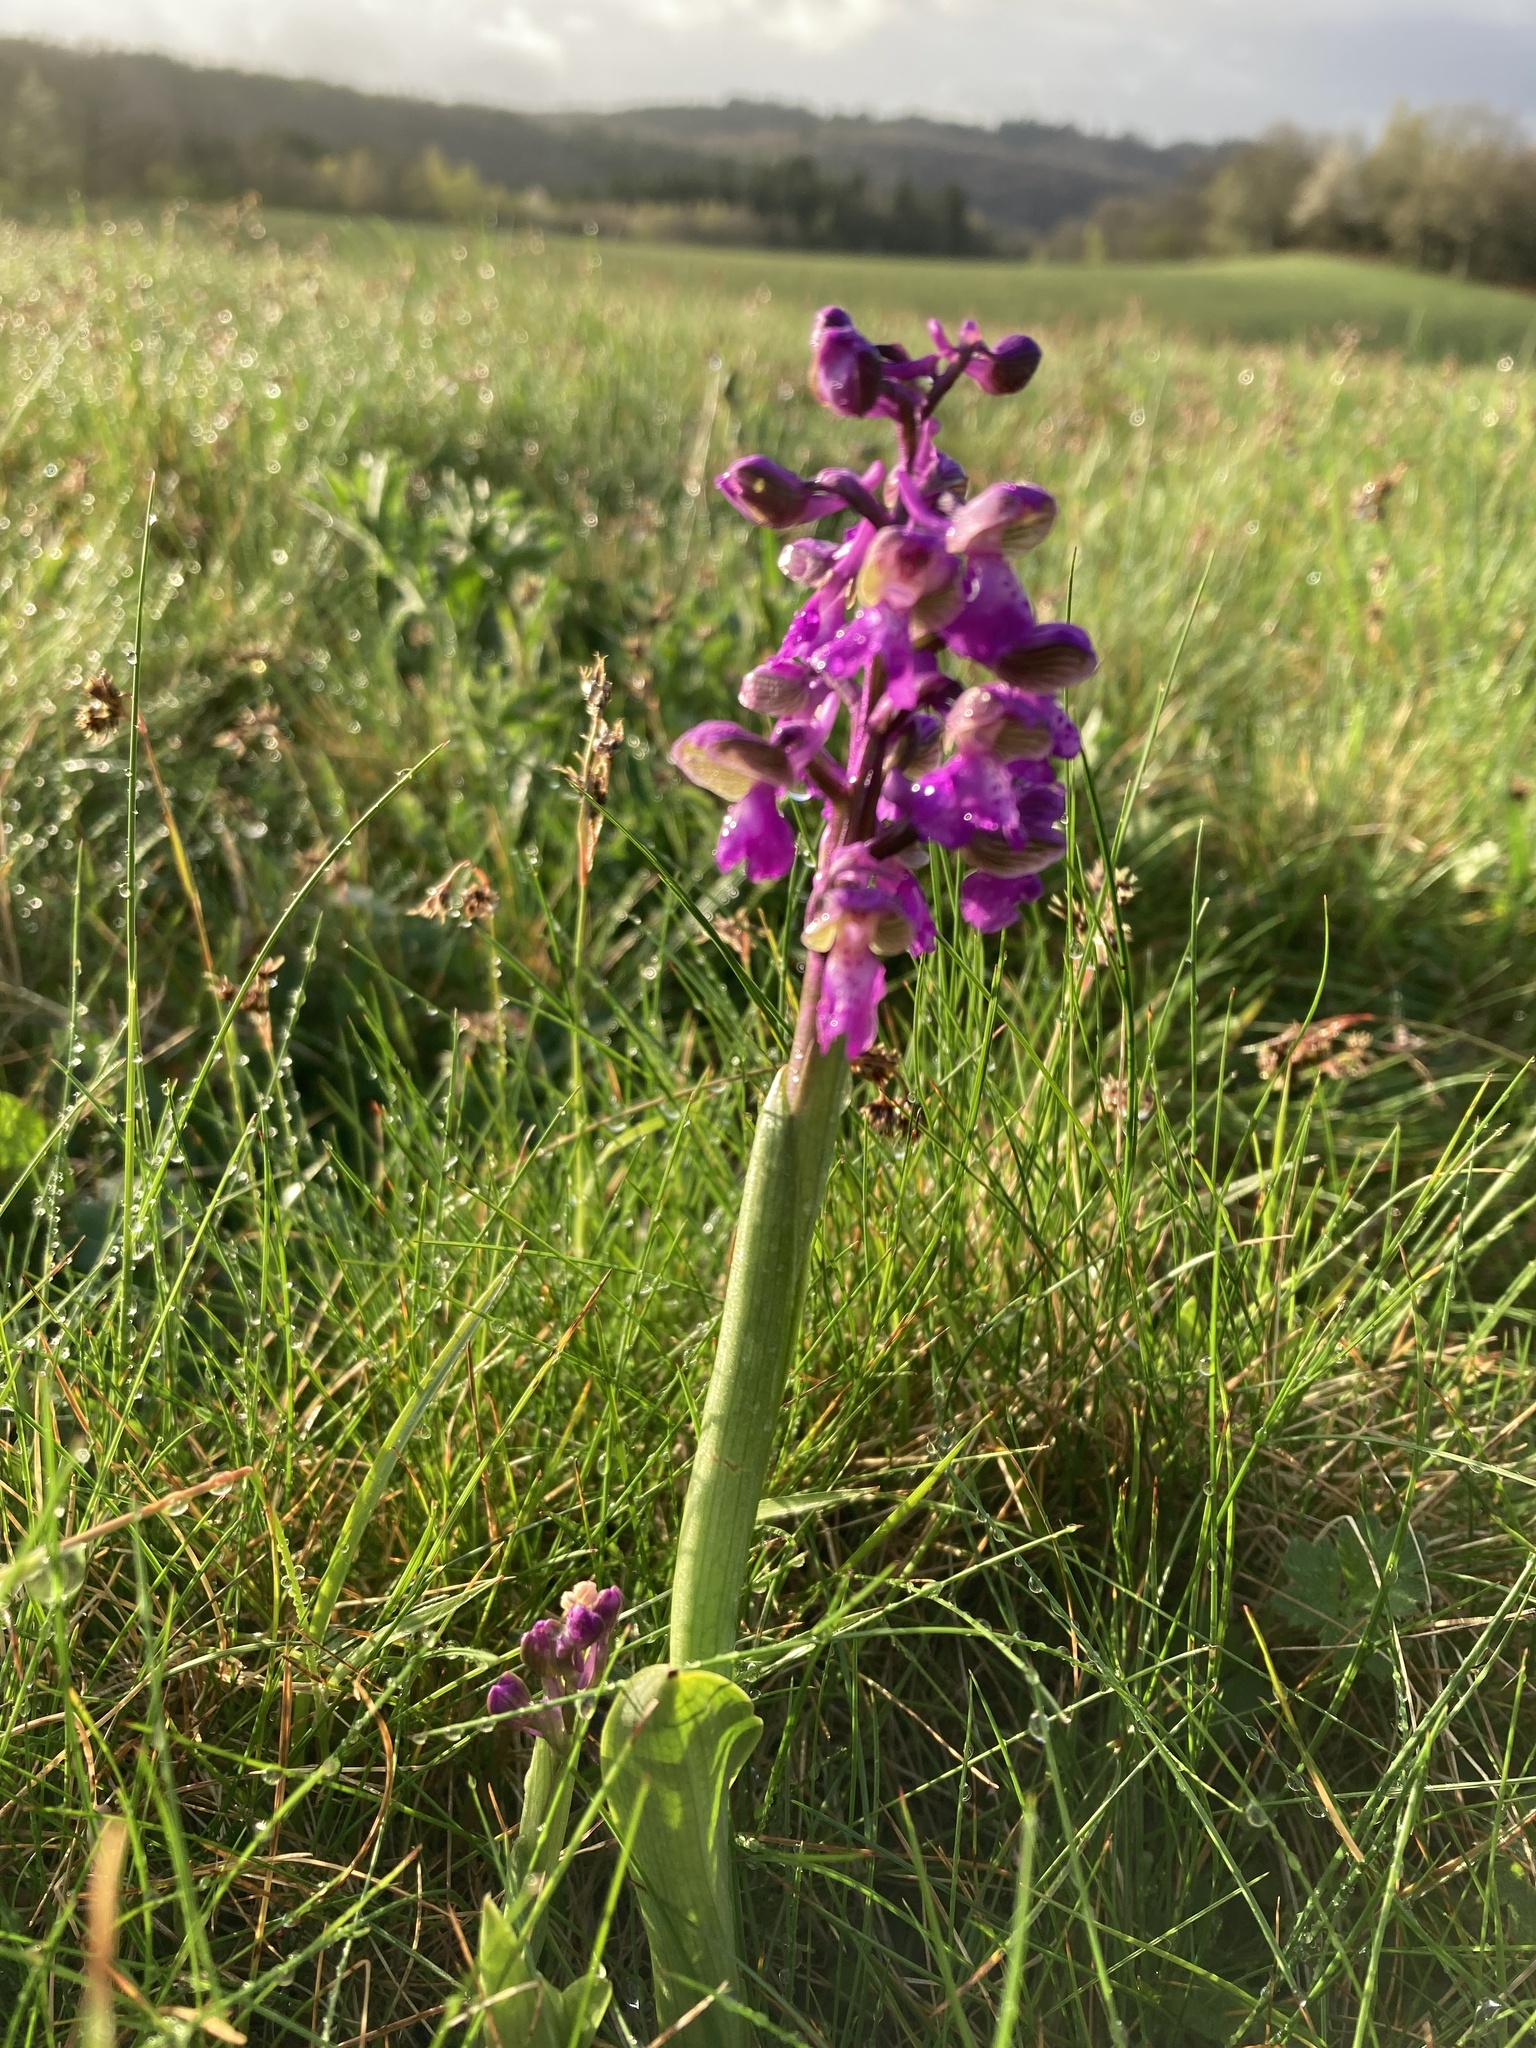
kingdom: Plantae
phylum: Tracheophyta
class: Liliopsida
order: Asparagales
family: Orchidaceae
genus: Anacamptis
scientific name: Anacamptis morio
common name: Green-winged orchid
